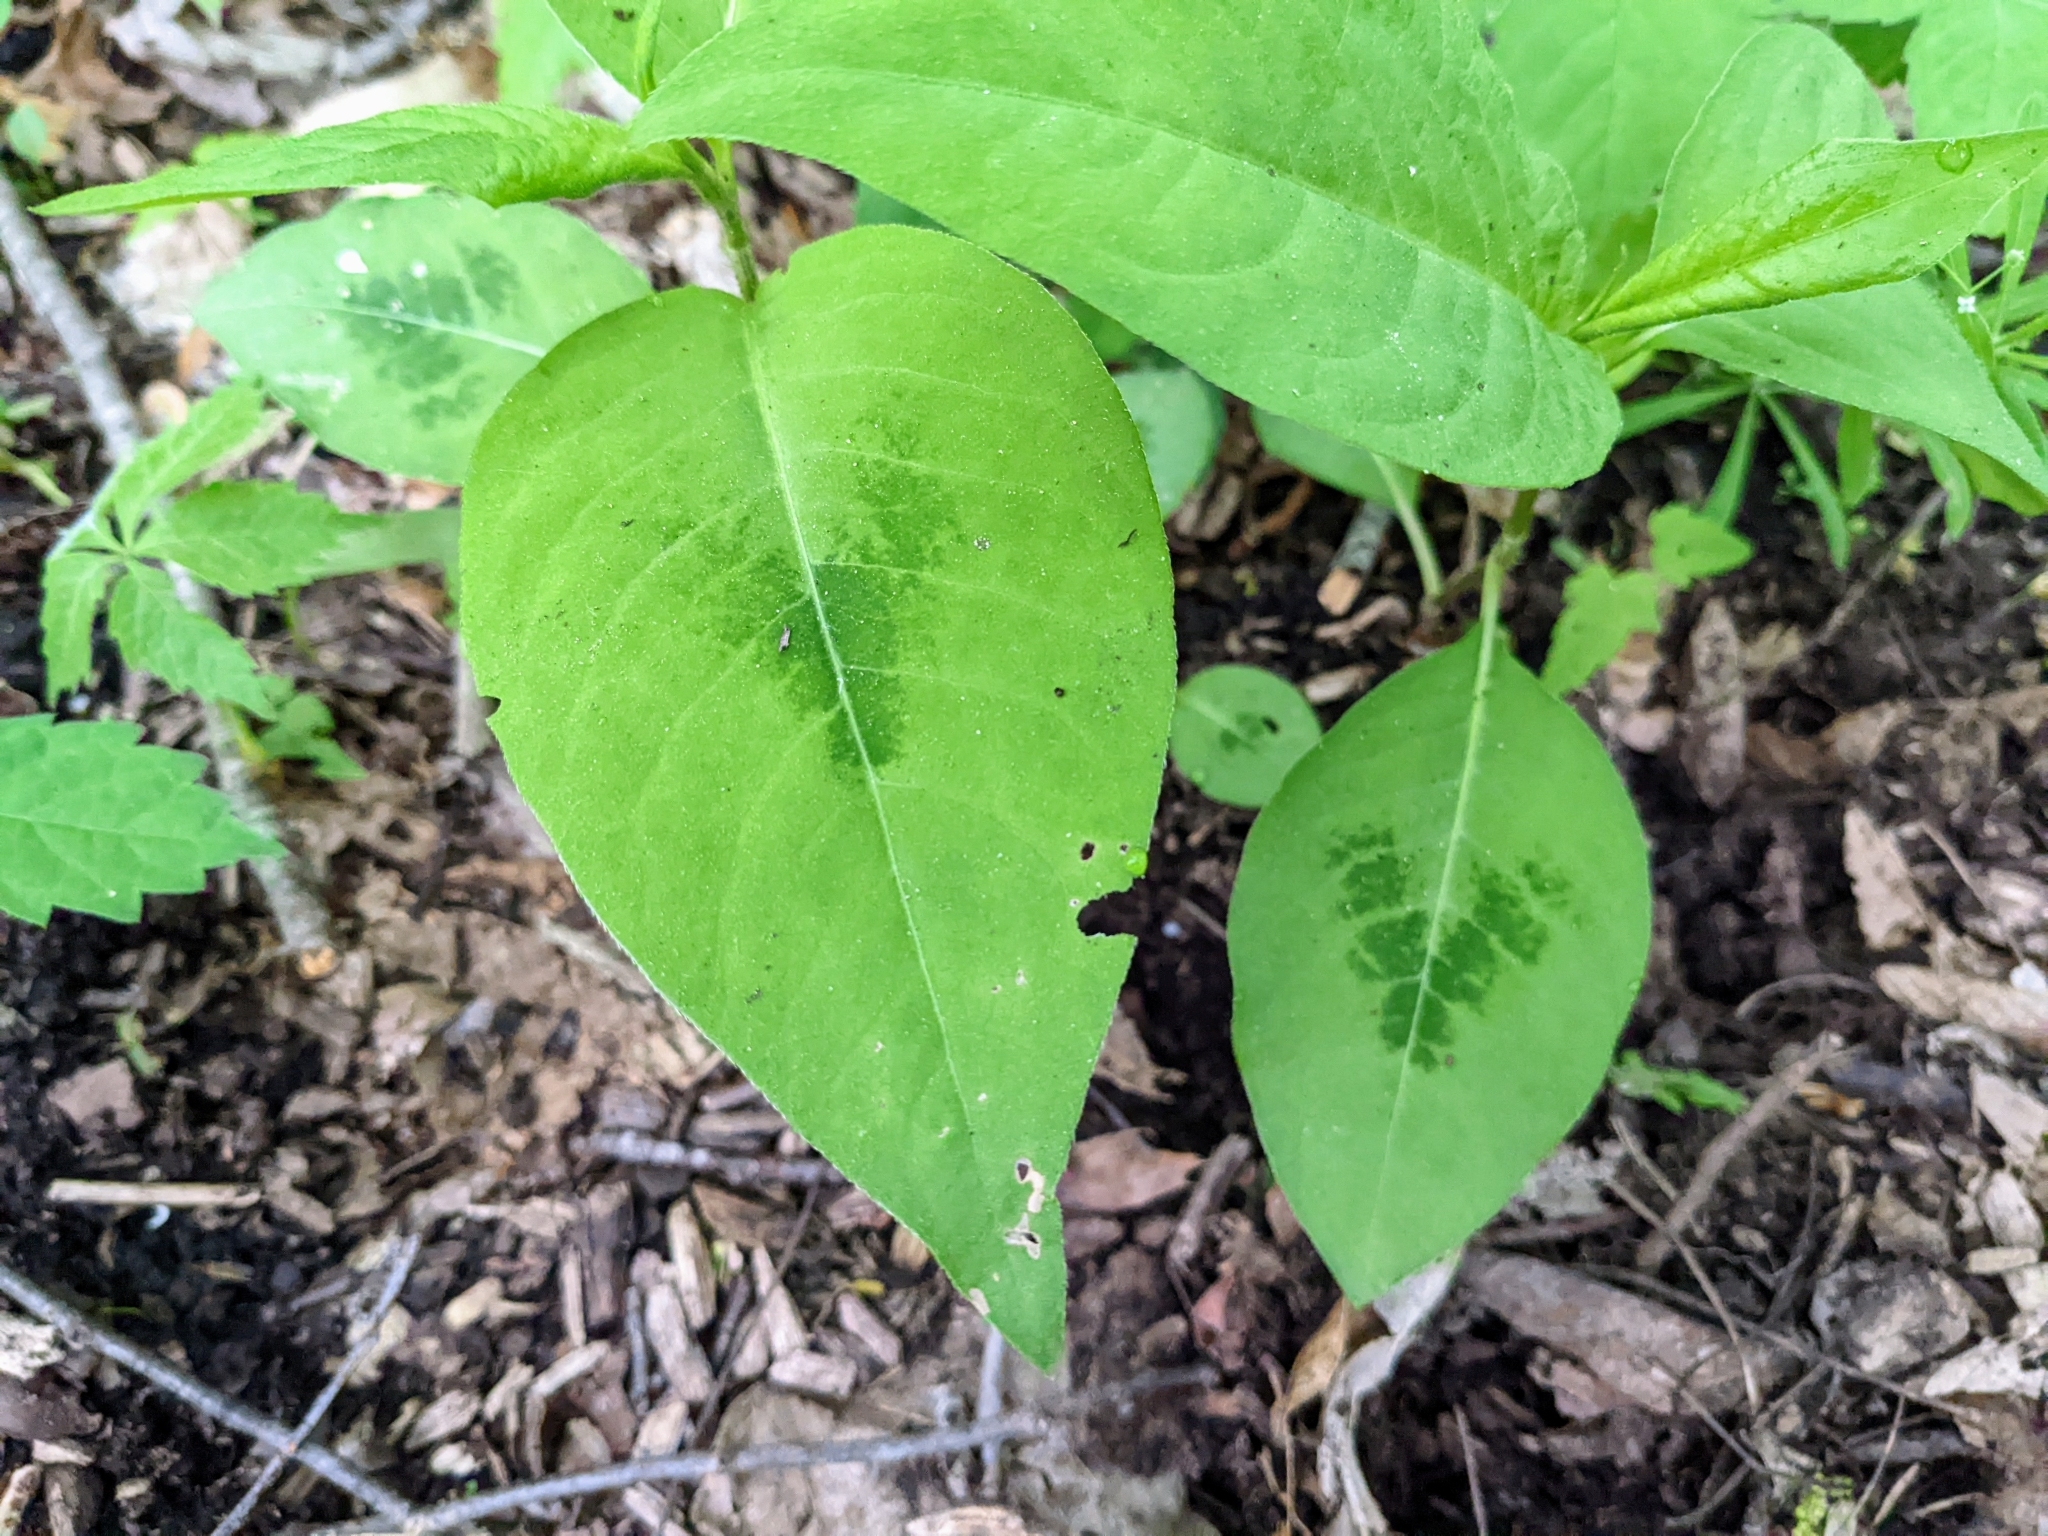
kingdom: Plantae
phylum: Tracheophyta
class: Magnoliopsida
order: Caryophyllales
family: Polygonaceae
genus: Persicaria
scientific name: Persicaria virginiana
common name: Jumpseed
